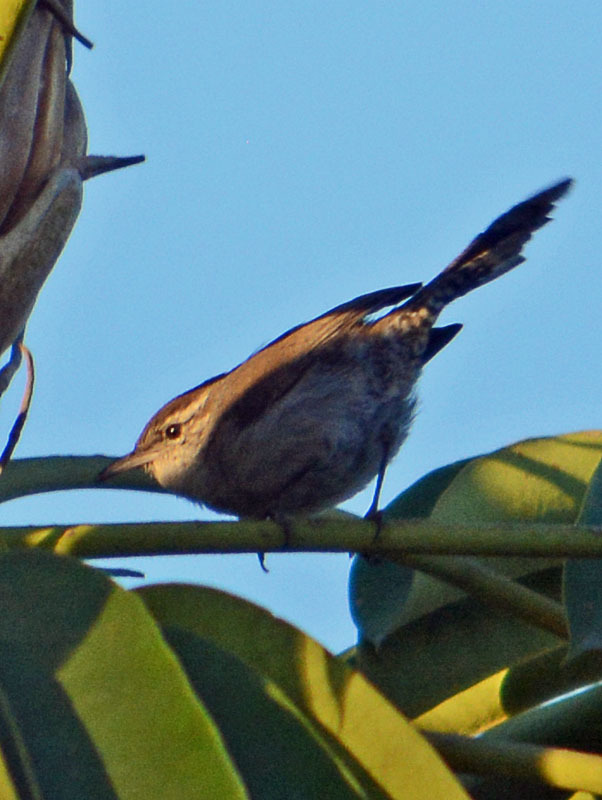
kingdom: Animalia
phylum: Chordata
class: Aves
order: Passeriformes
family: Troglodytidae
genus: Thryomanes
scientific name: Thryomanes bewickii
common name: Bewick's wren
